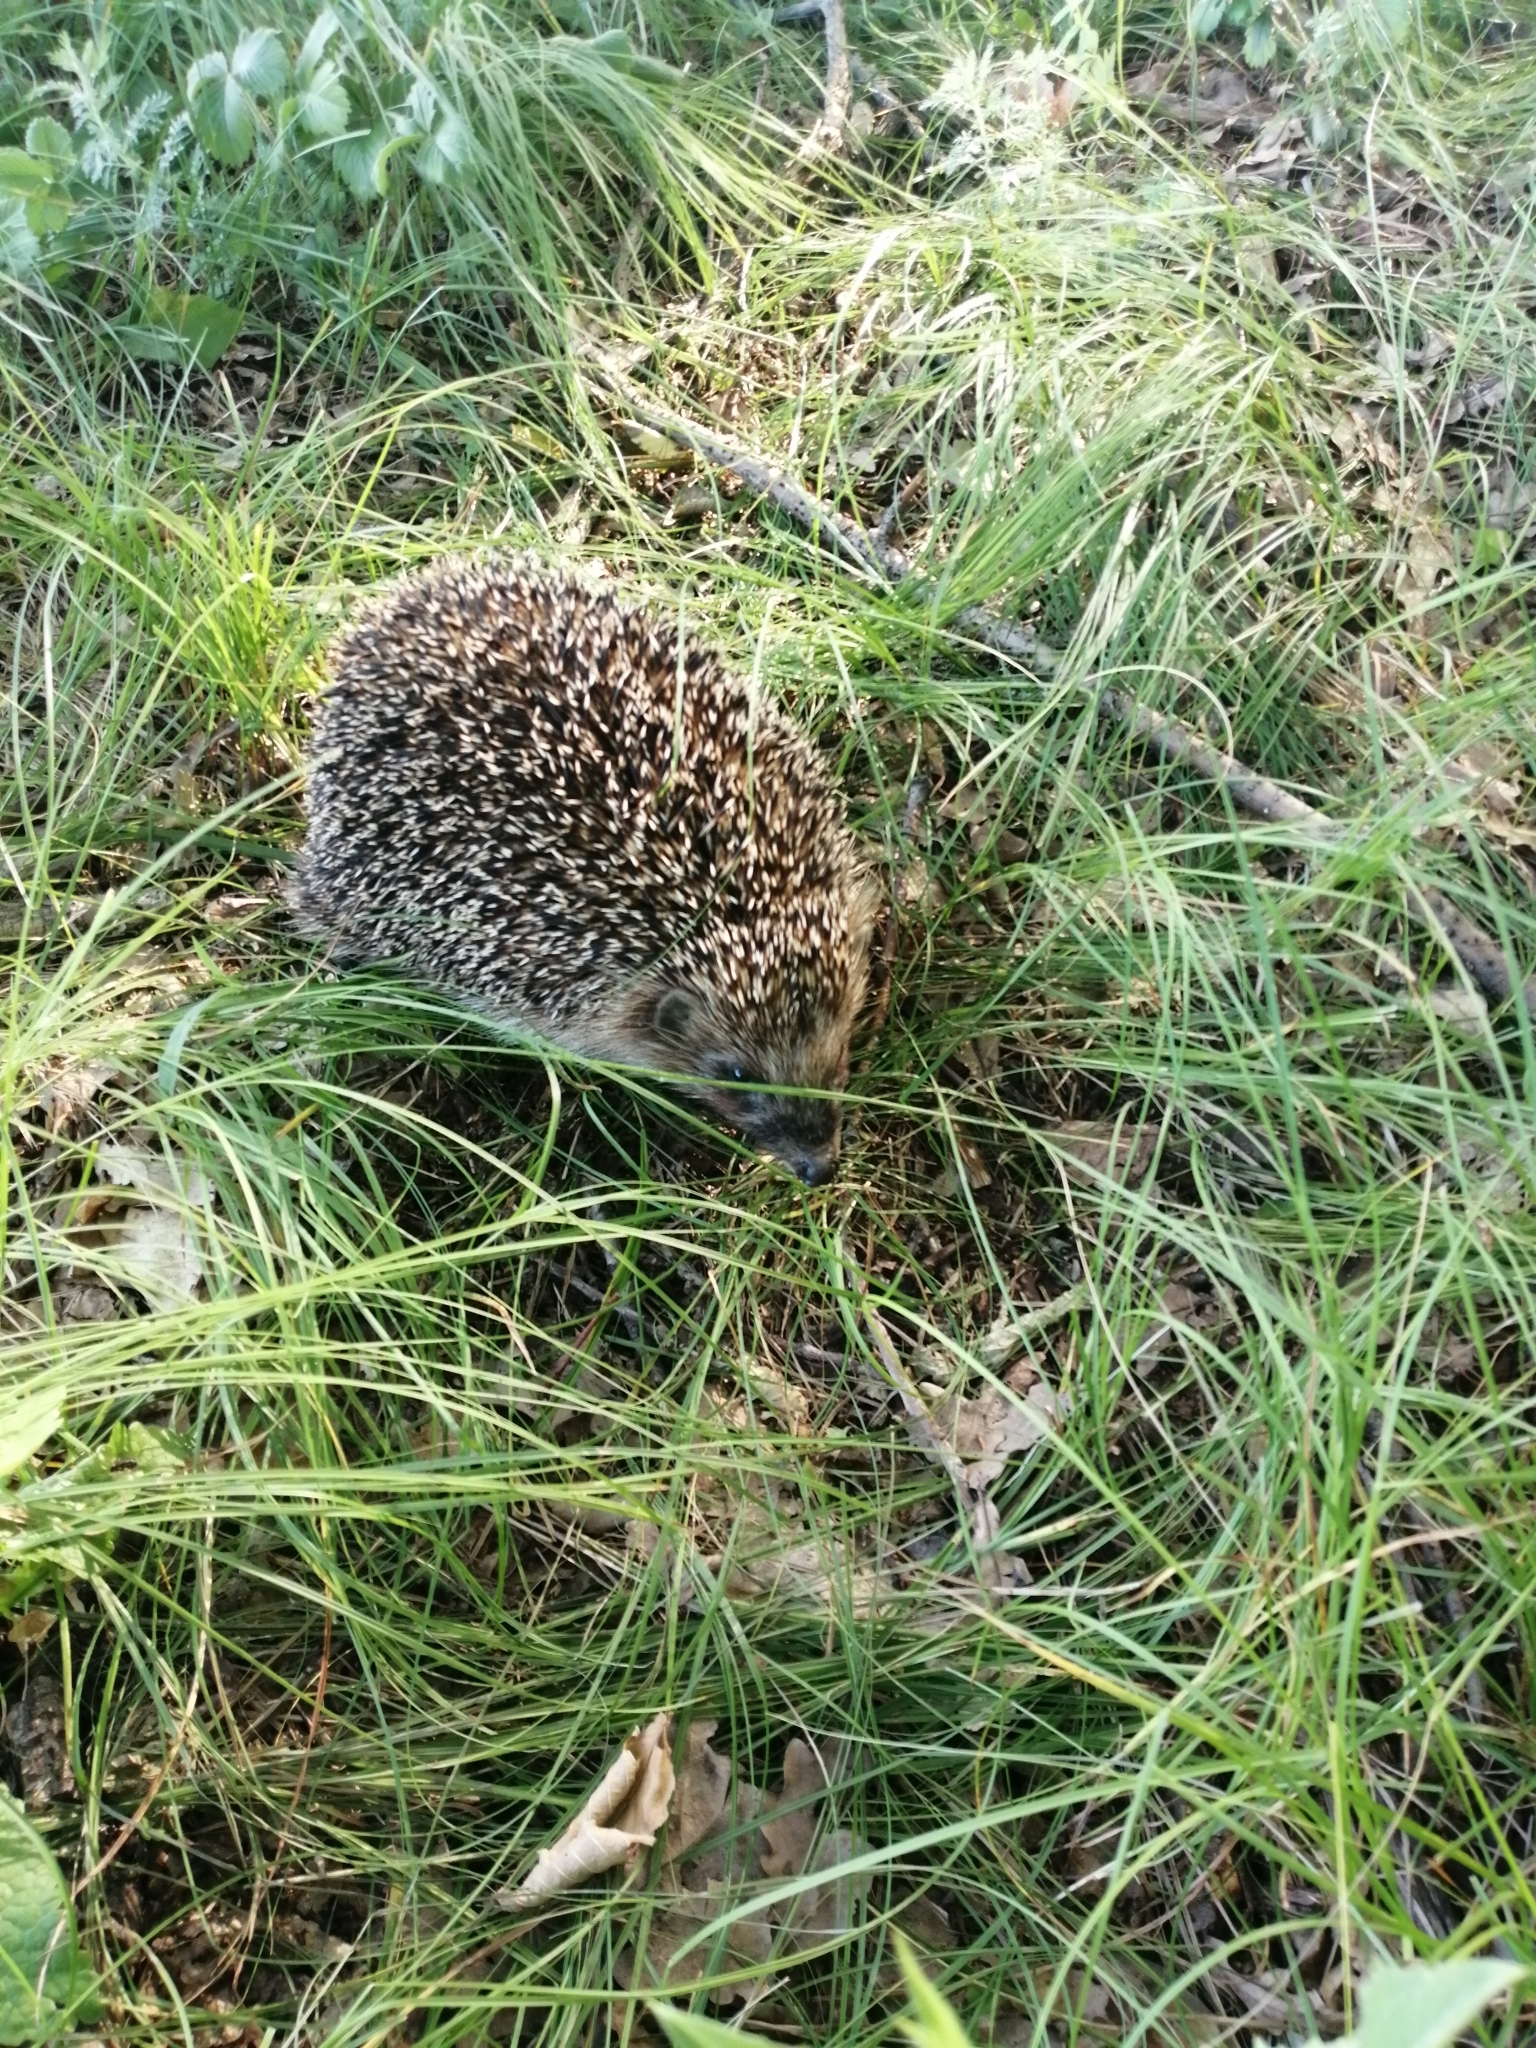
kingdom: Animalia
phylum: Chordata
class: Mammalia
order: Erinaceomorpha
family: Erinaceidae
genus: Erinaceus
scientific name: Erinaceus roumanicus
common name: Northern white-breasted hedgehog
